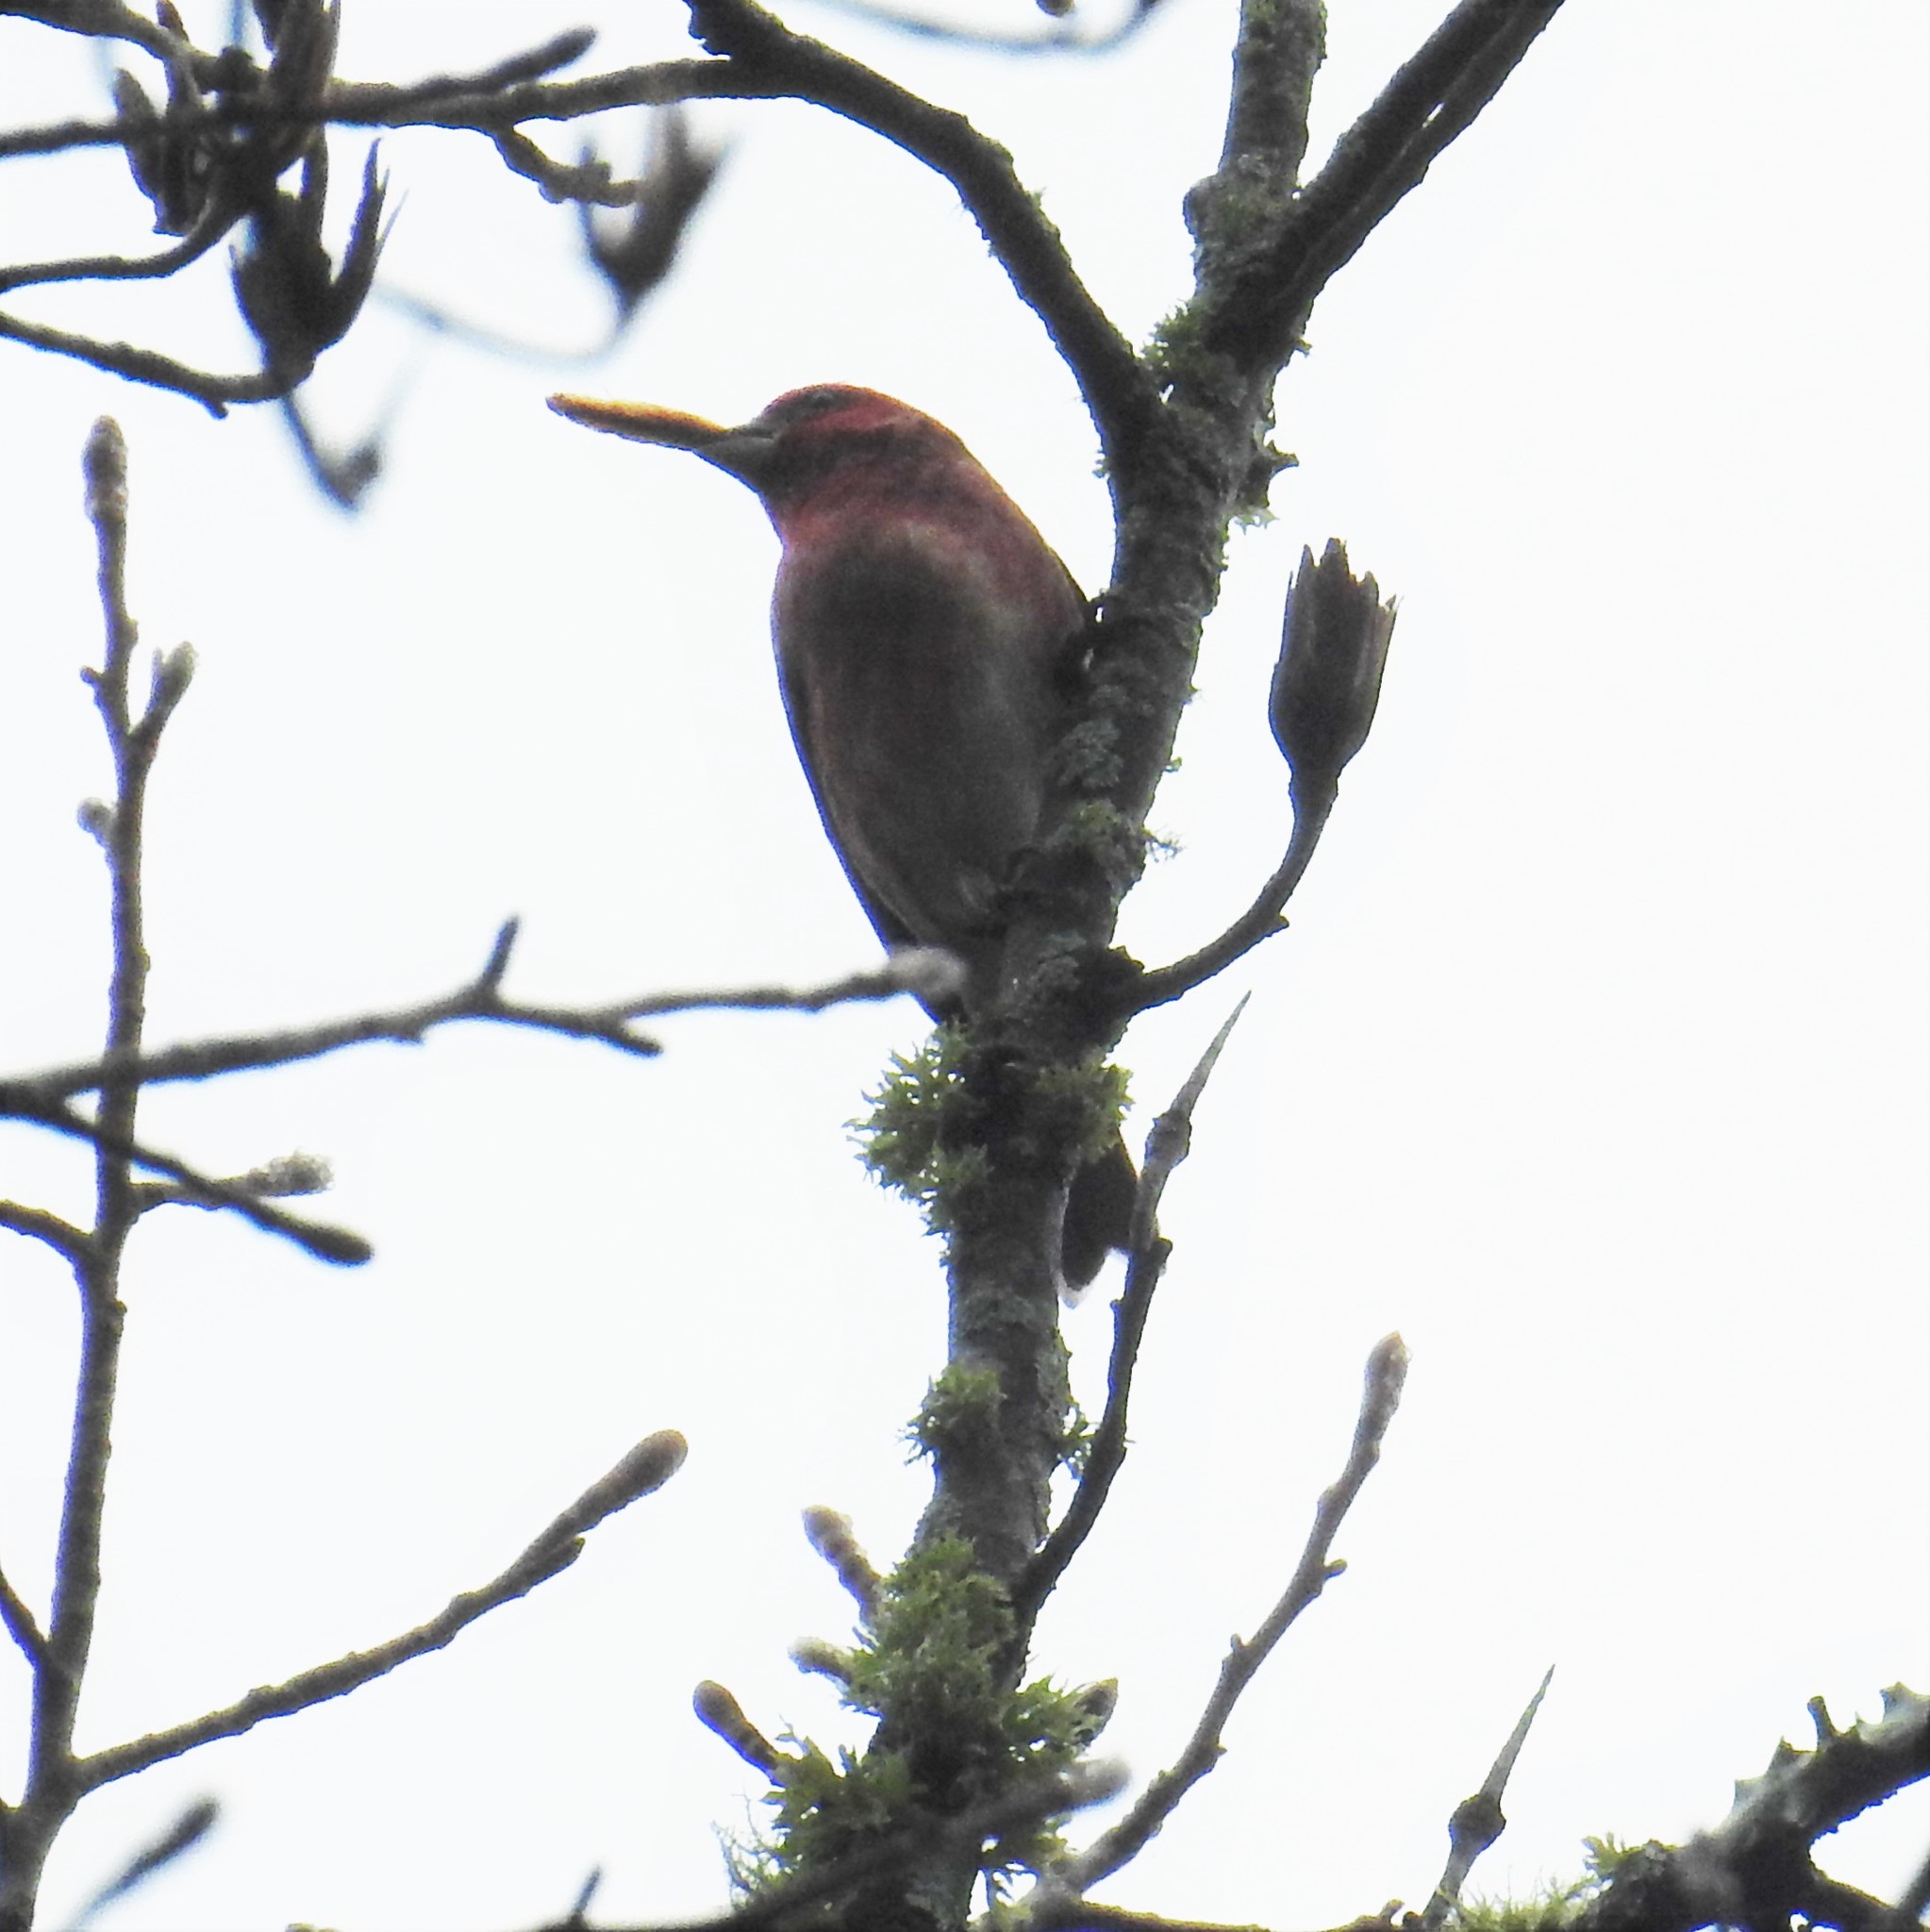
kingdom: Animalia
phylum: Chordata
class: Aves
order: Passeriformes
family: Fringillidae
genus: Haemorhous
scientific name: Haemorhous purpureus
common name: Purple finch
